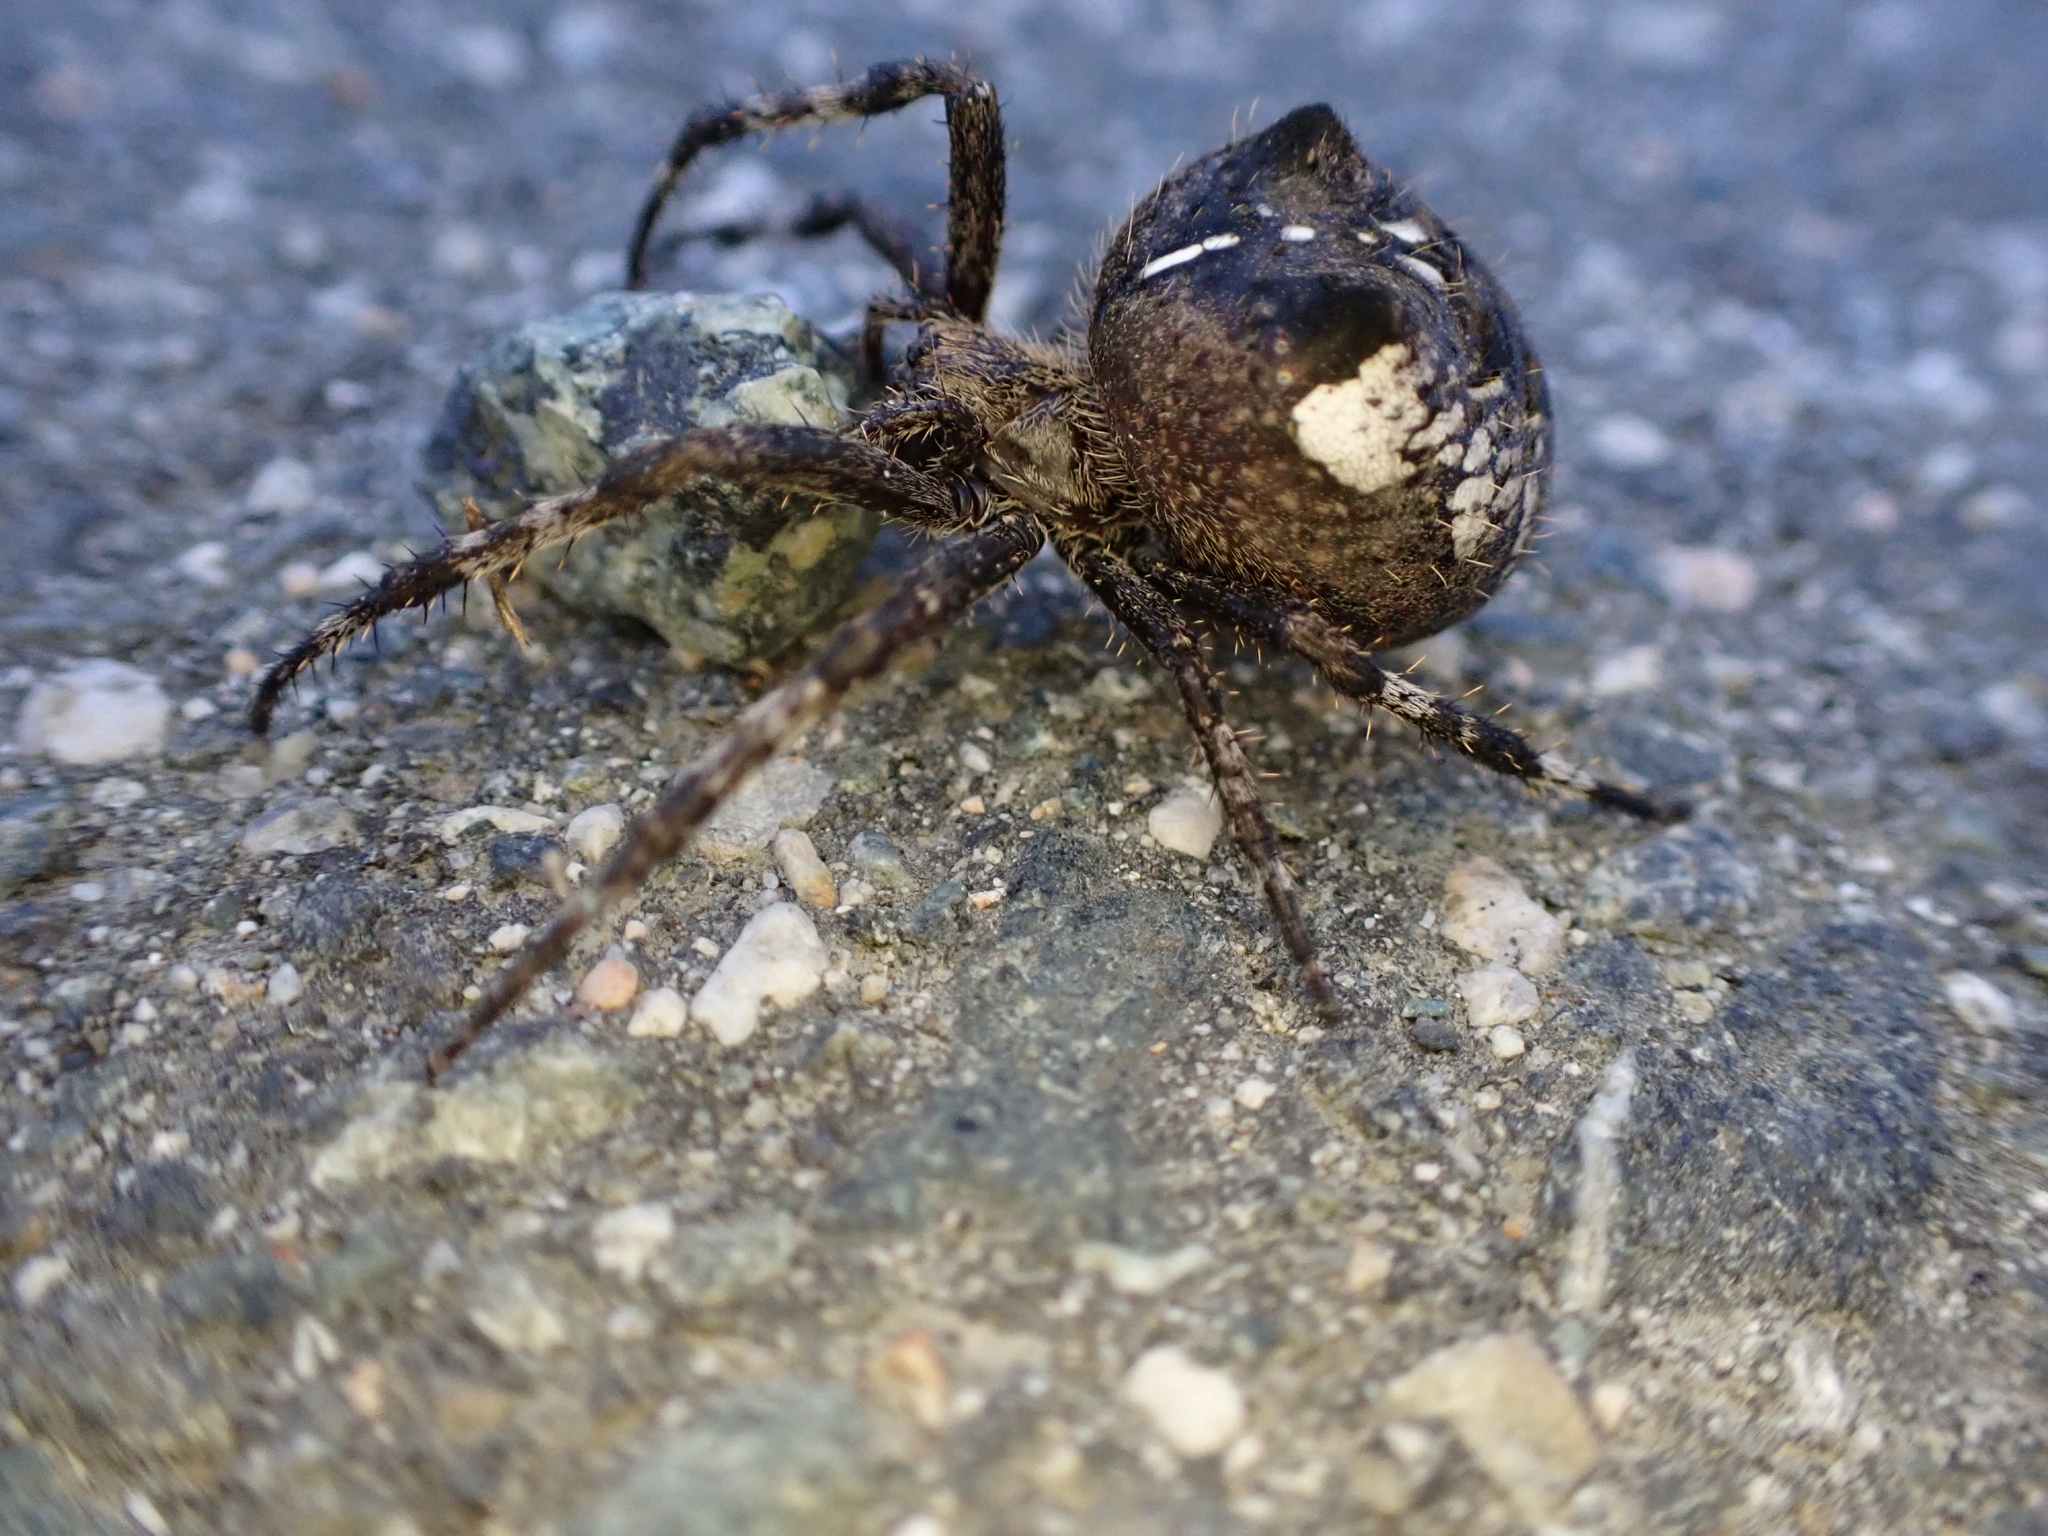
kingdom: Animalia
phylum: Arthropoda
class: Arachnida
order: Araneae
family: Araneidae
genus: Araneus
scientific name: Araneus saevus
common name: Fierce orbweaver
